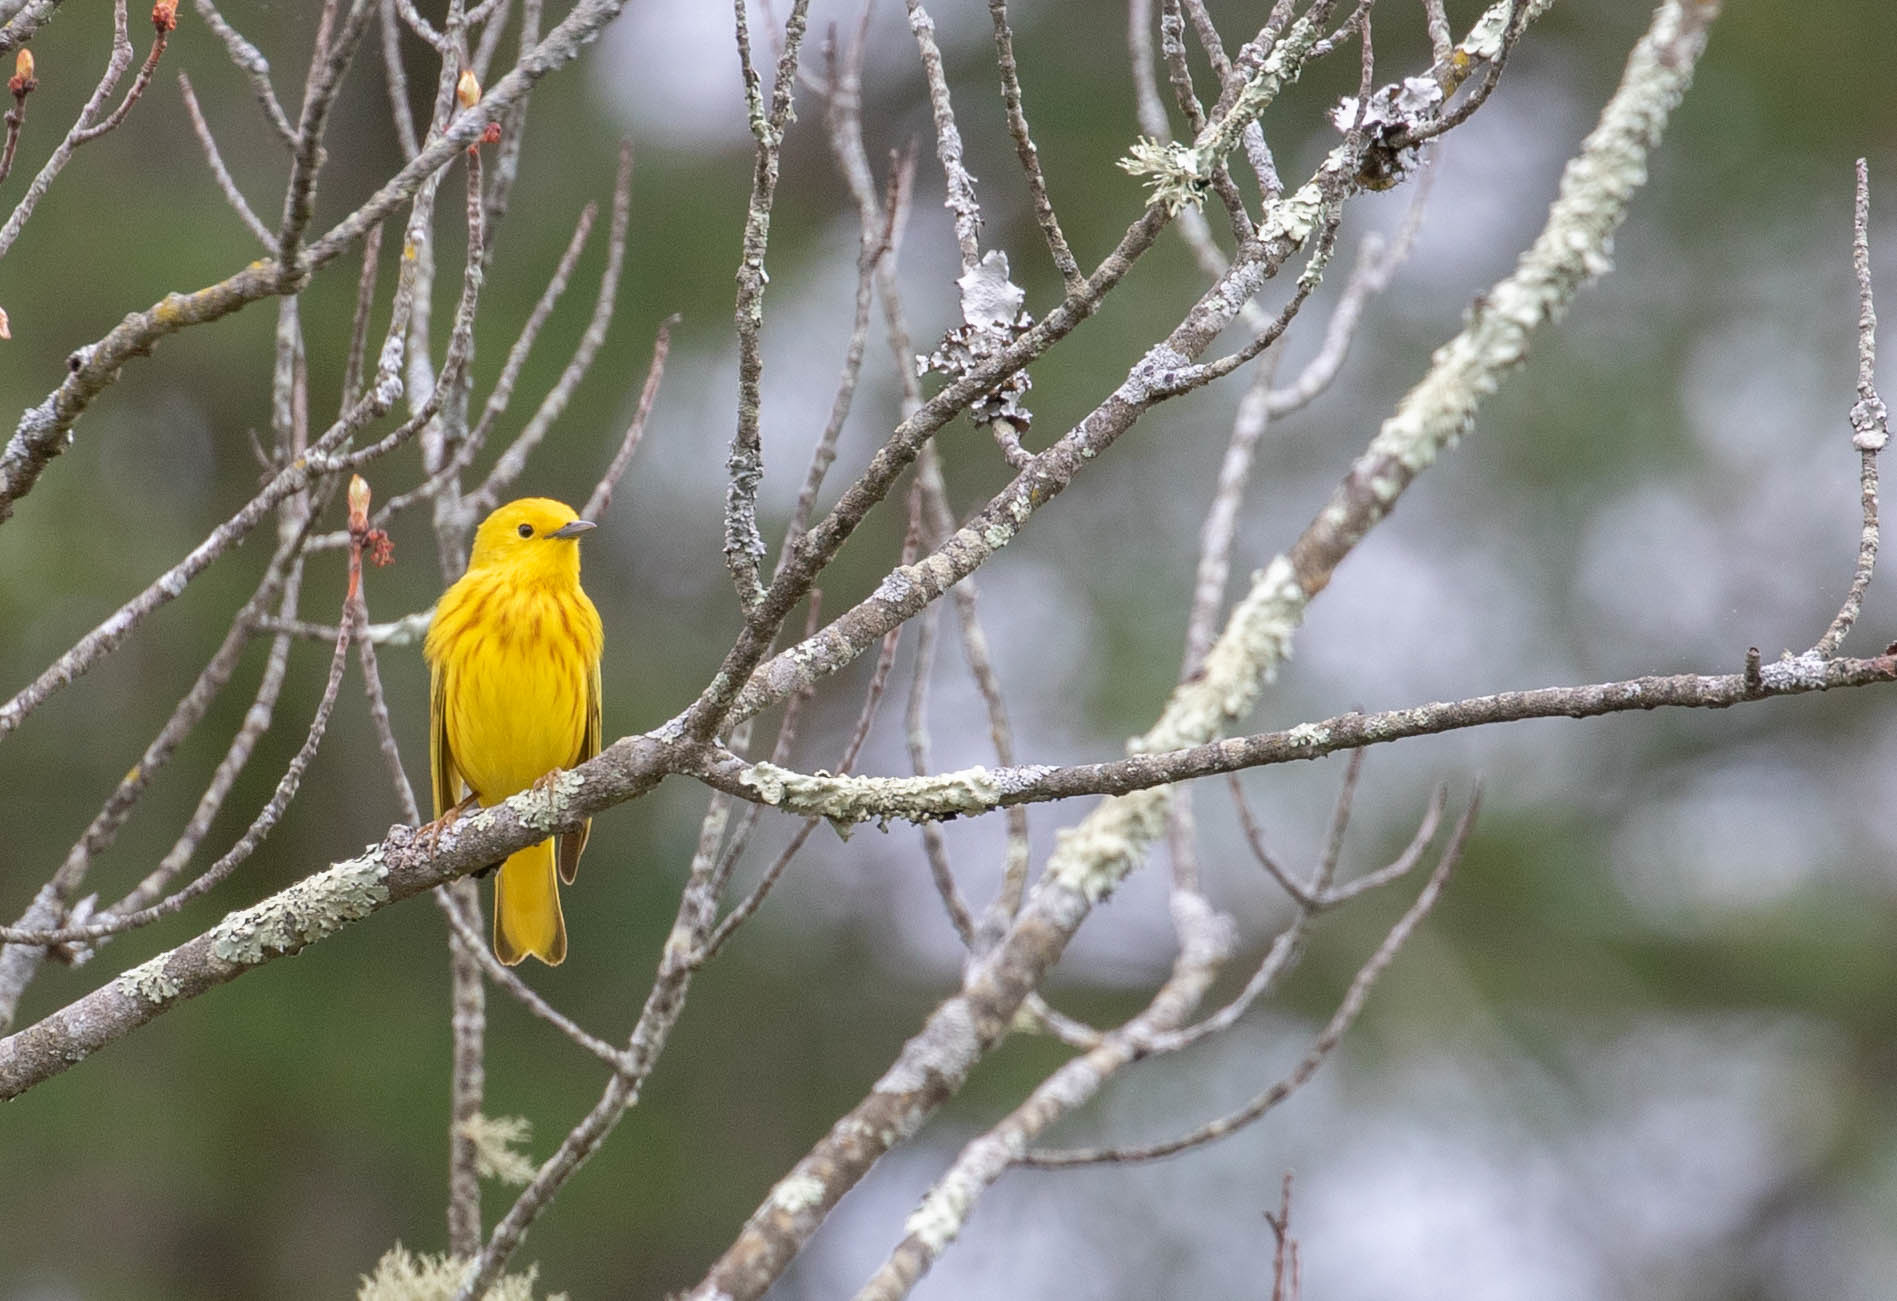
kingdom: Animalia
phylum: Chordata
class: Aves
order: Passeriformes
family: Parulidae
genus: Setophaga
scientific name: Setophaga petechia
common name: Yellow warbler
